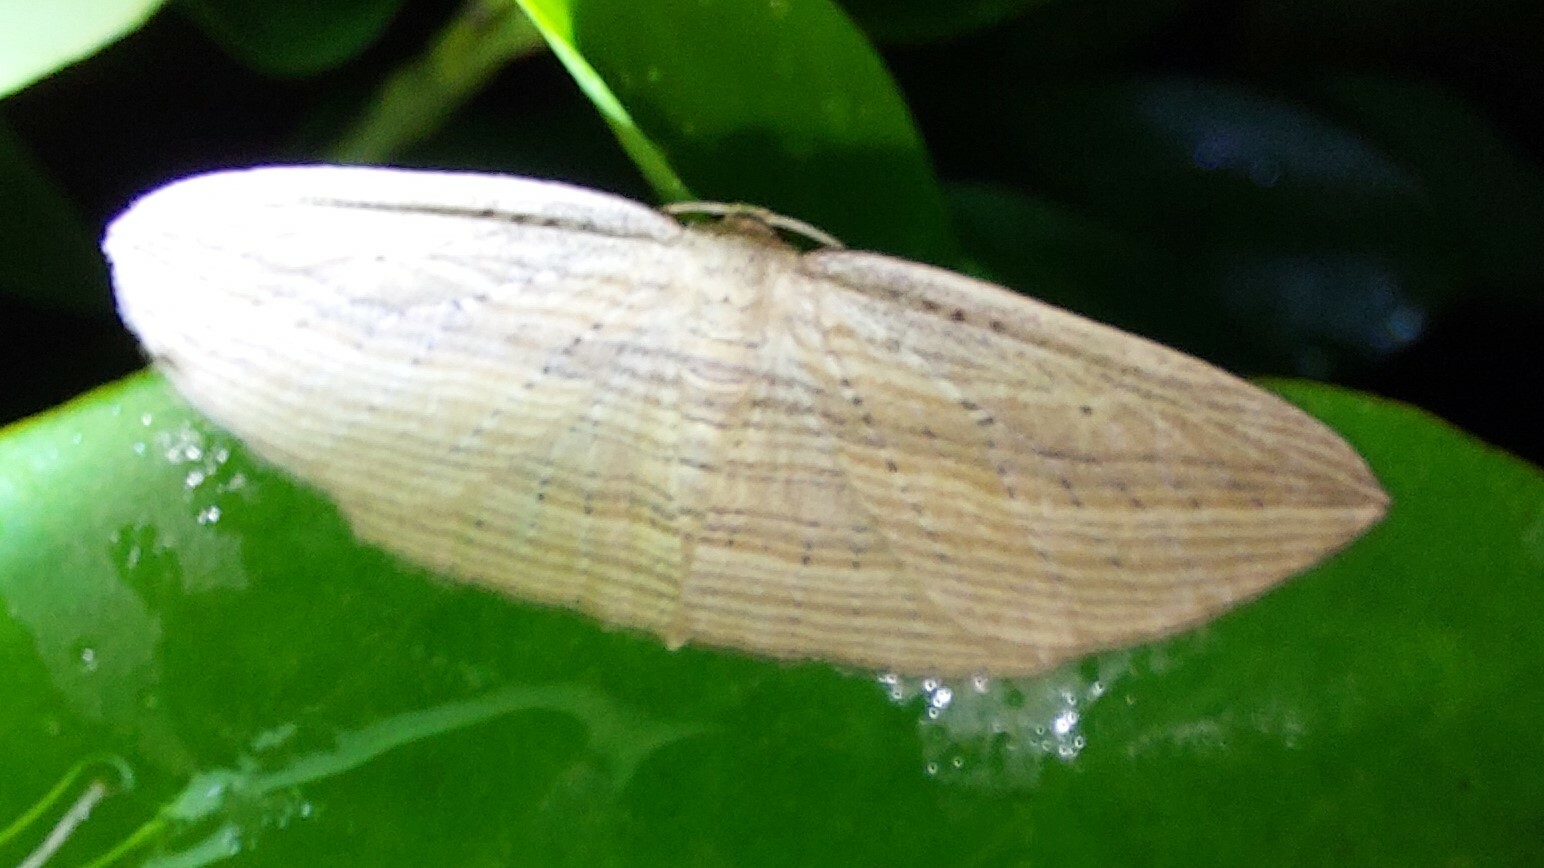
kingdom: Animalia
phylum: Arthropoda
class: Insecta
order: Lepidoptera
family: Geometridae
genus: Epiphryne
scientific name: Epiphryne verriculata
